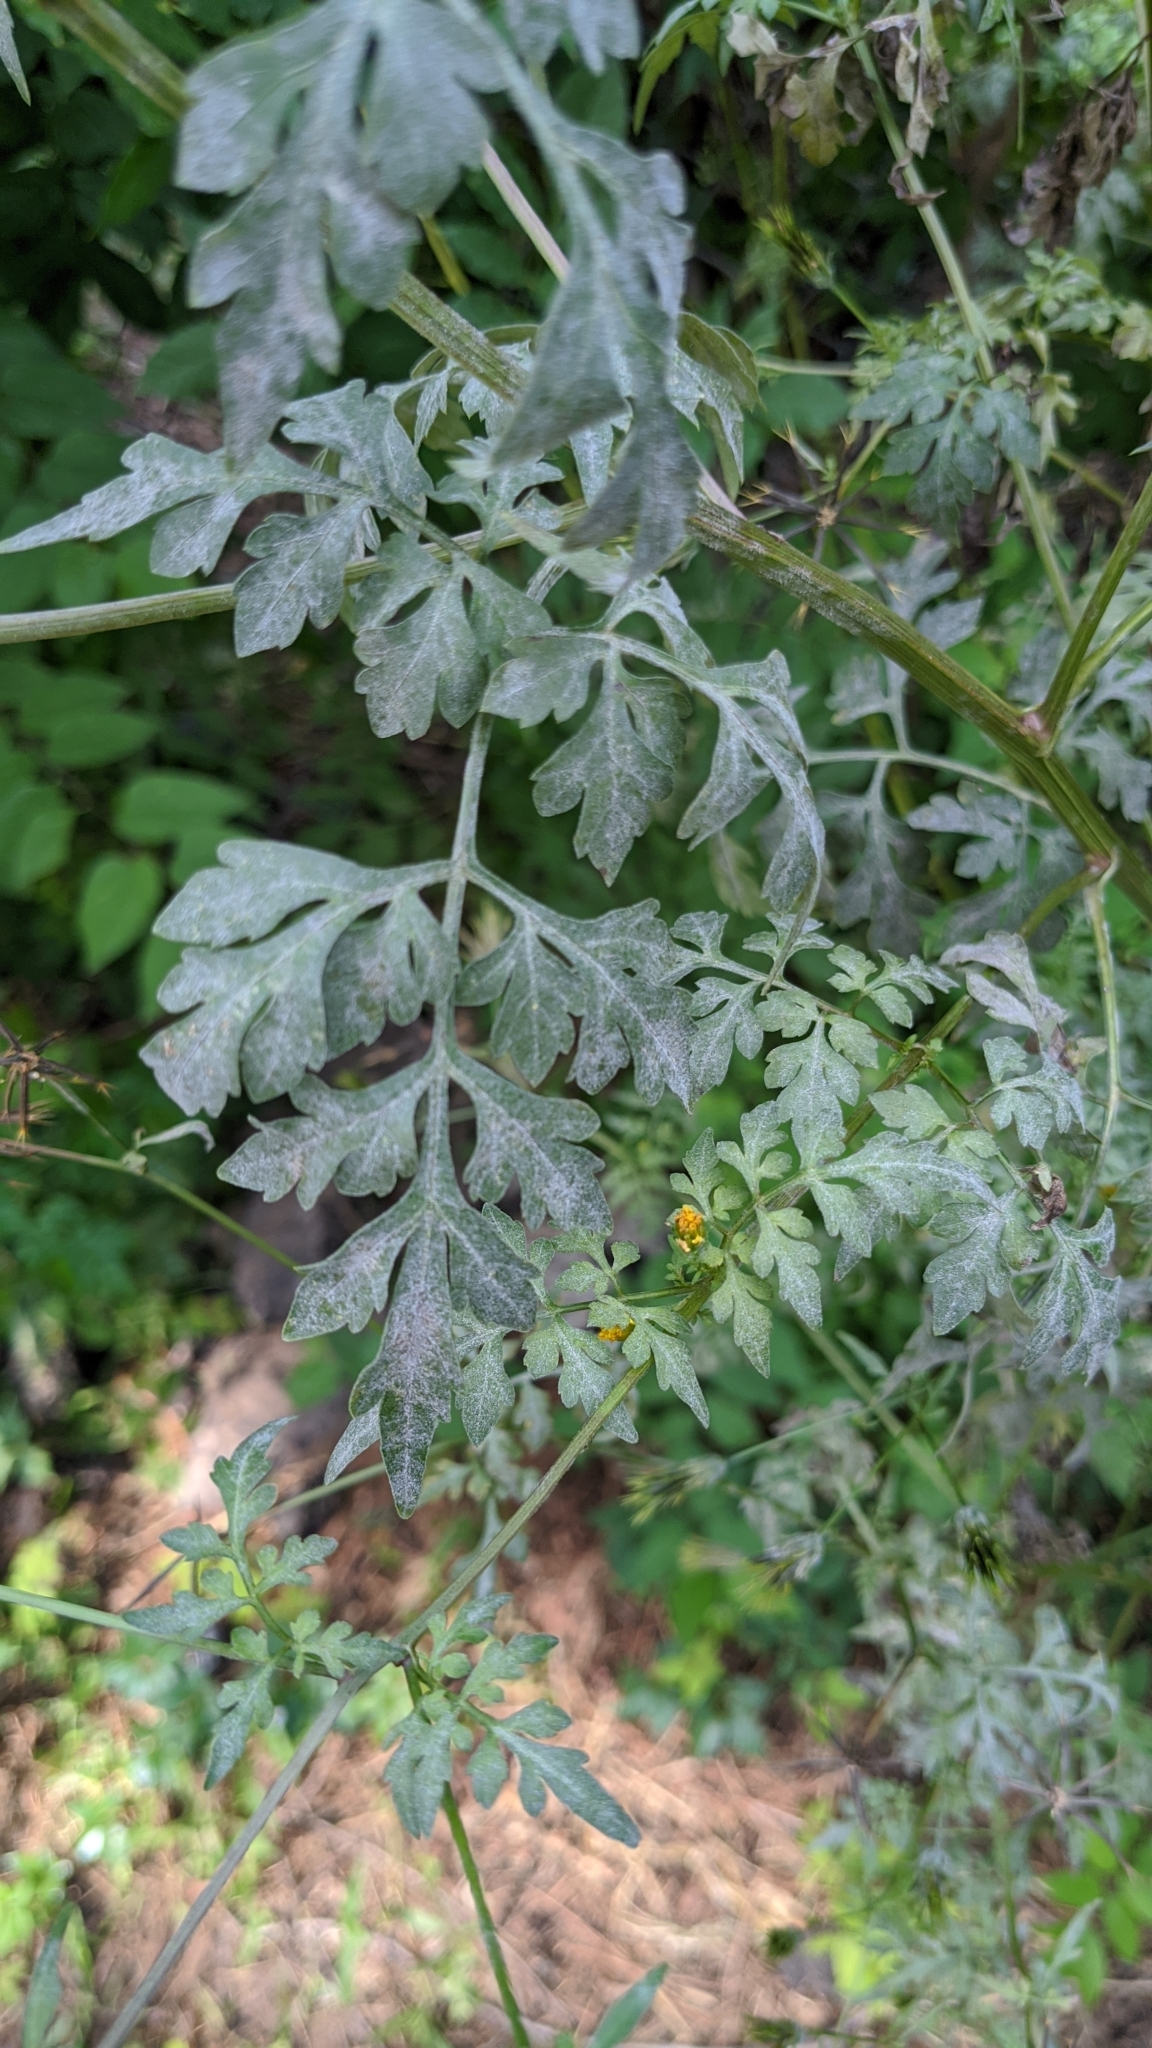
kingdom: Plantae
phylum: Tracheophyta
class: Magnoliopsida
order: Asterales
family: Asteraceae
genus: Bidens
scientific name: Bidens bipinnata
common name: Spanish-needles
